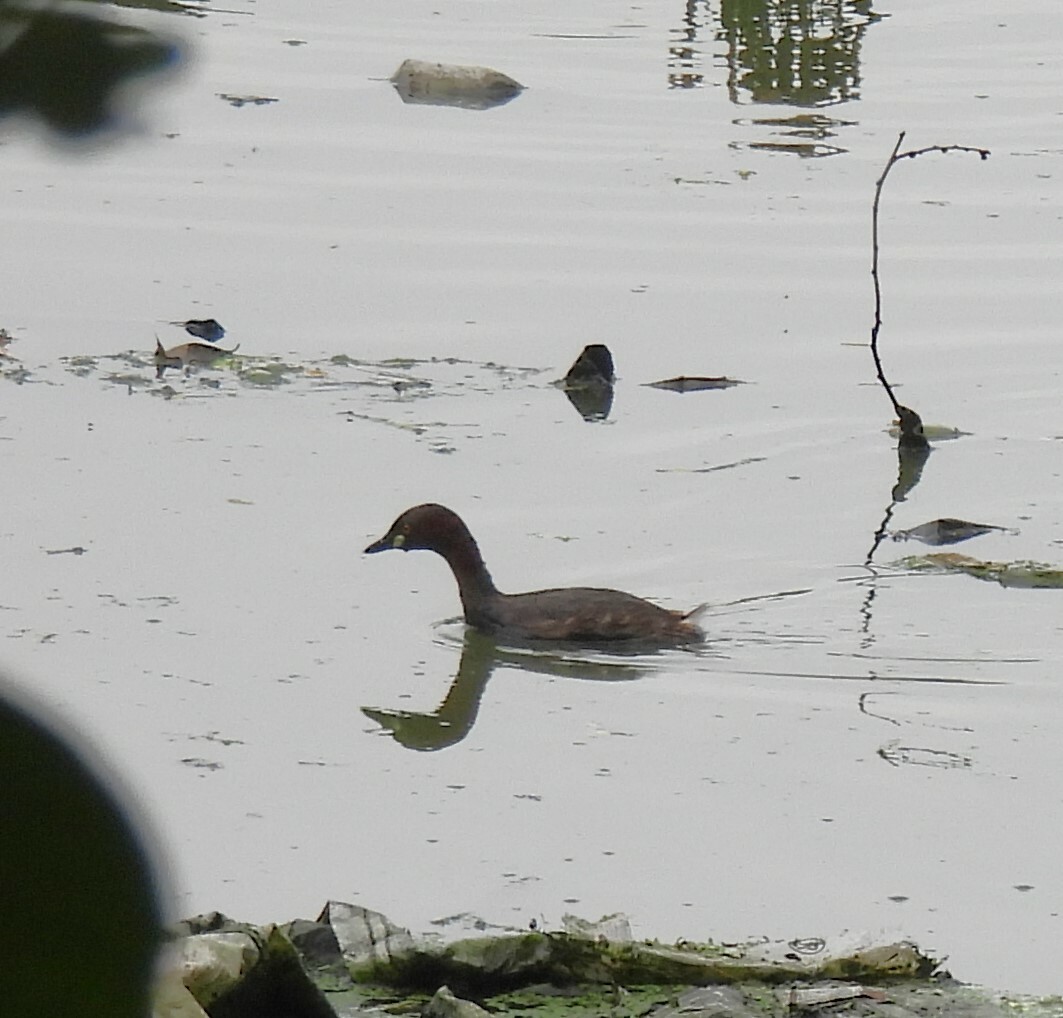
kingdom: Animalia
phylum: Chordata
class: Aves
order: Podicipediformes
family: Podicipedidae
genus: Tachybaptus
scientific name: Tachybaptus ruficollis
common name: Little grebe
